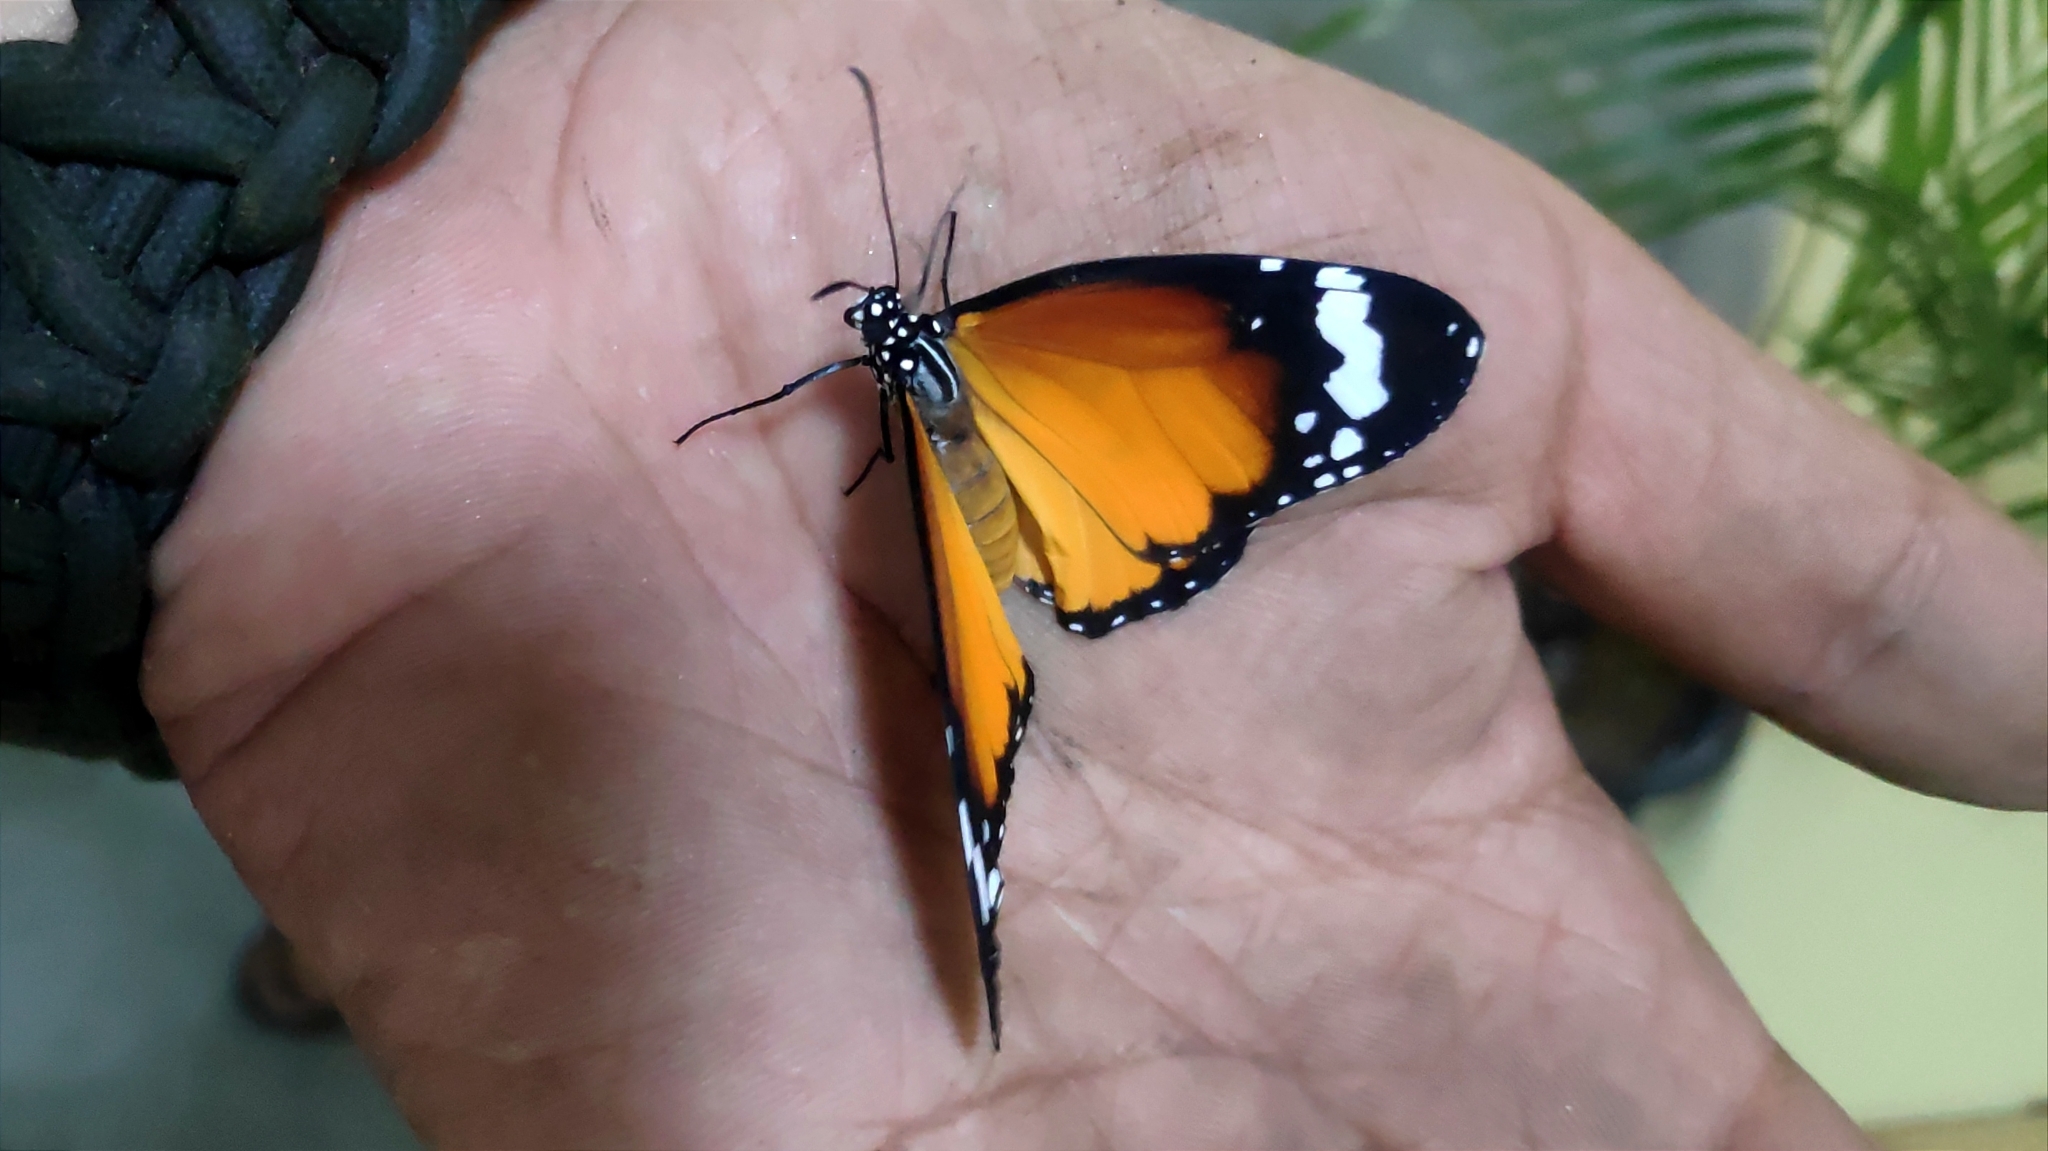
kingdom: Animalia
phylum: Arthropoda
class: Insecta
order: Lepidoptera
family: Nymphalidae
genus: Danaus
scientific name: Danaus chrysippus
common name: Plain tiger
